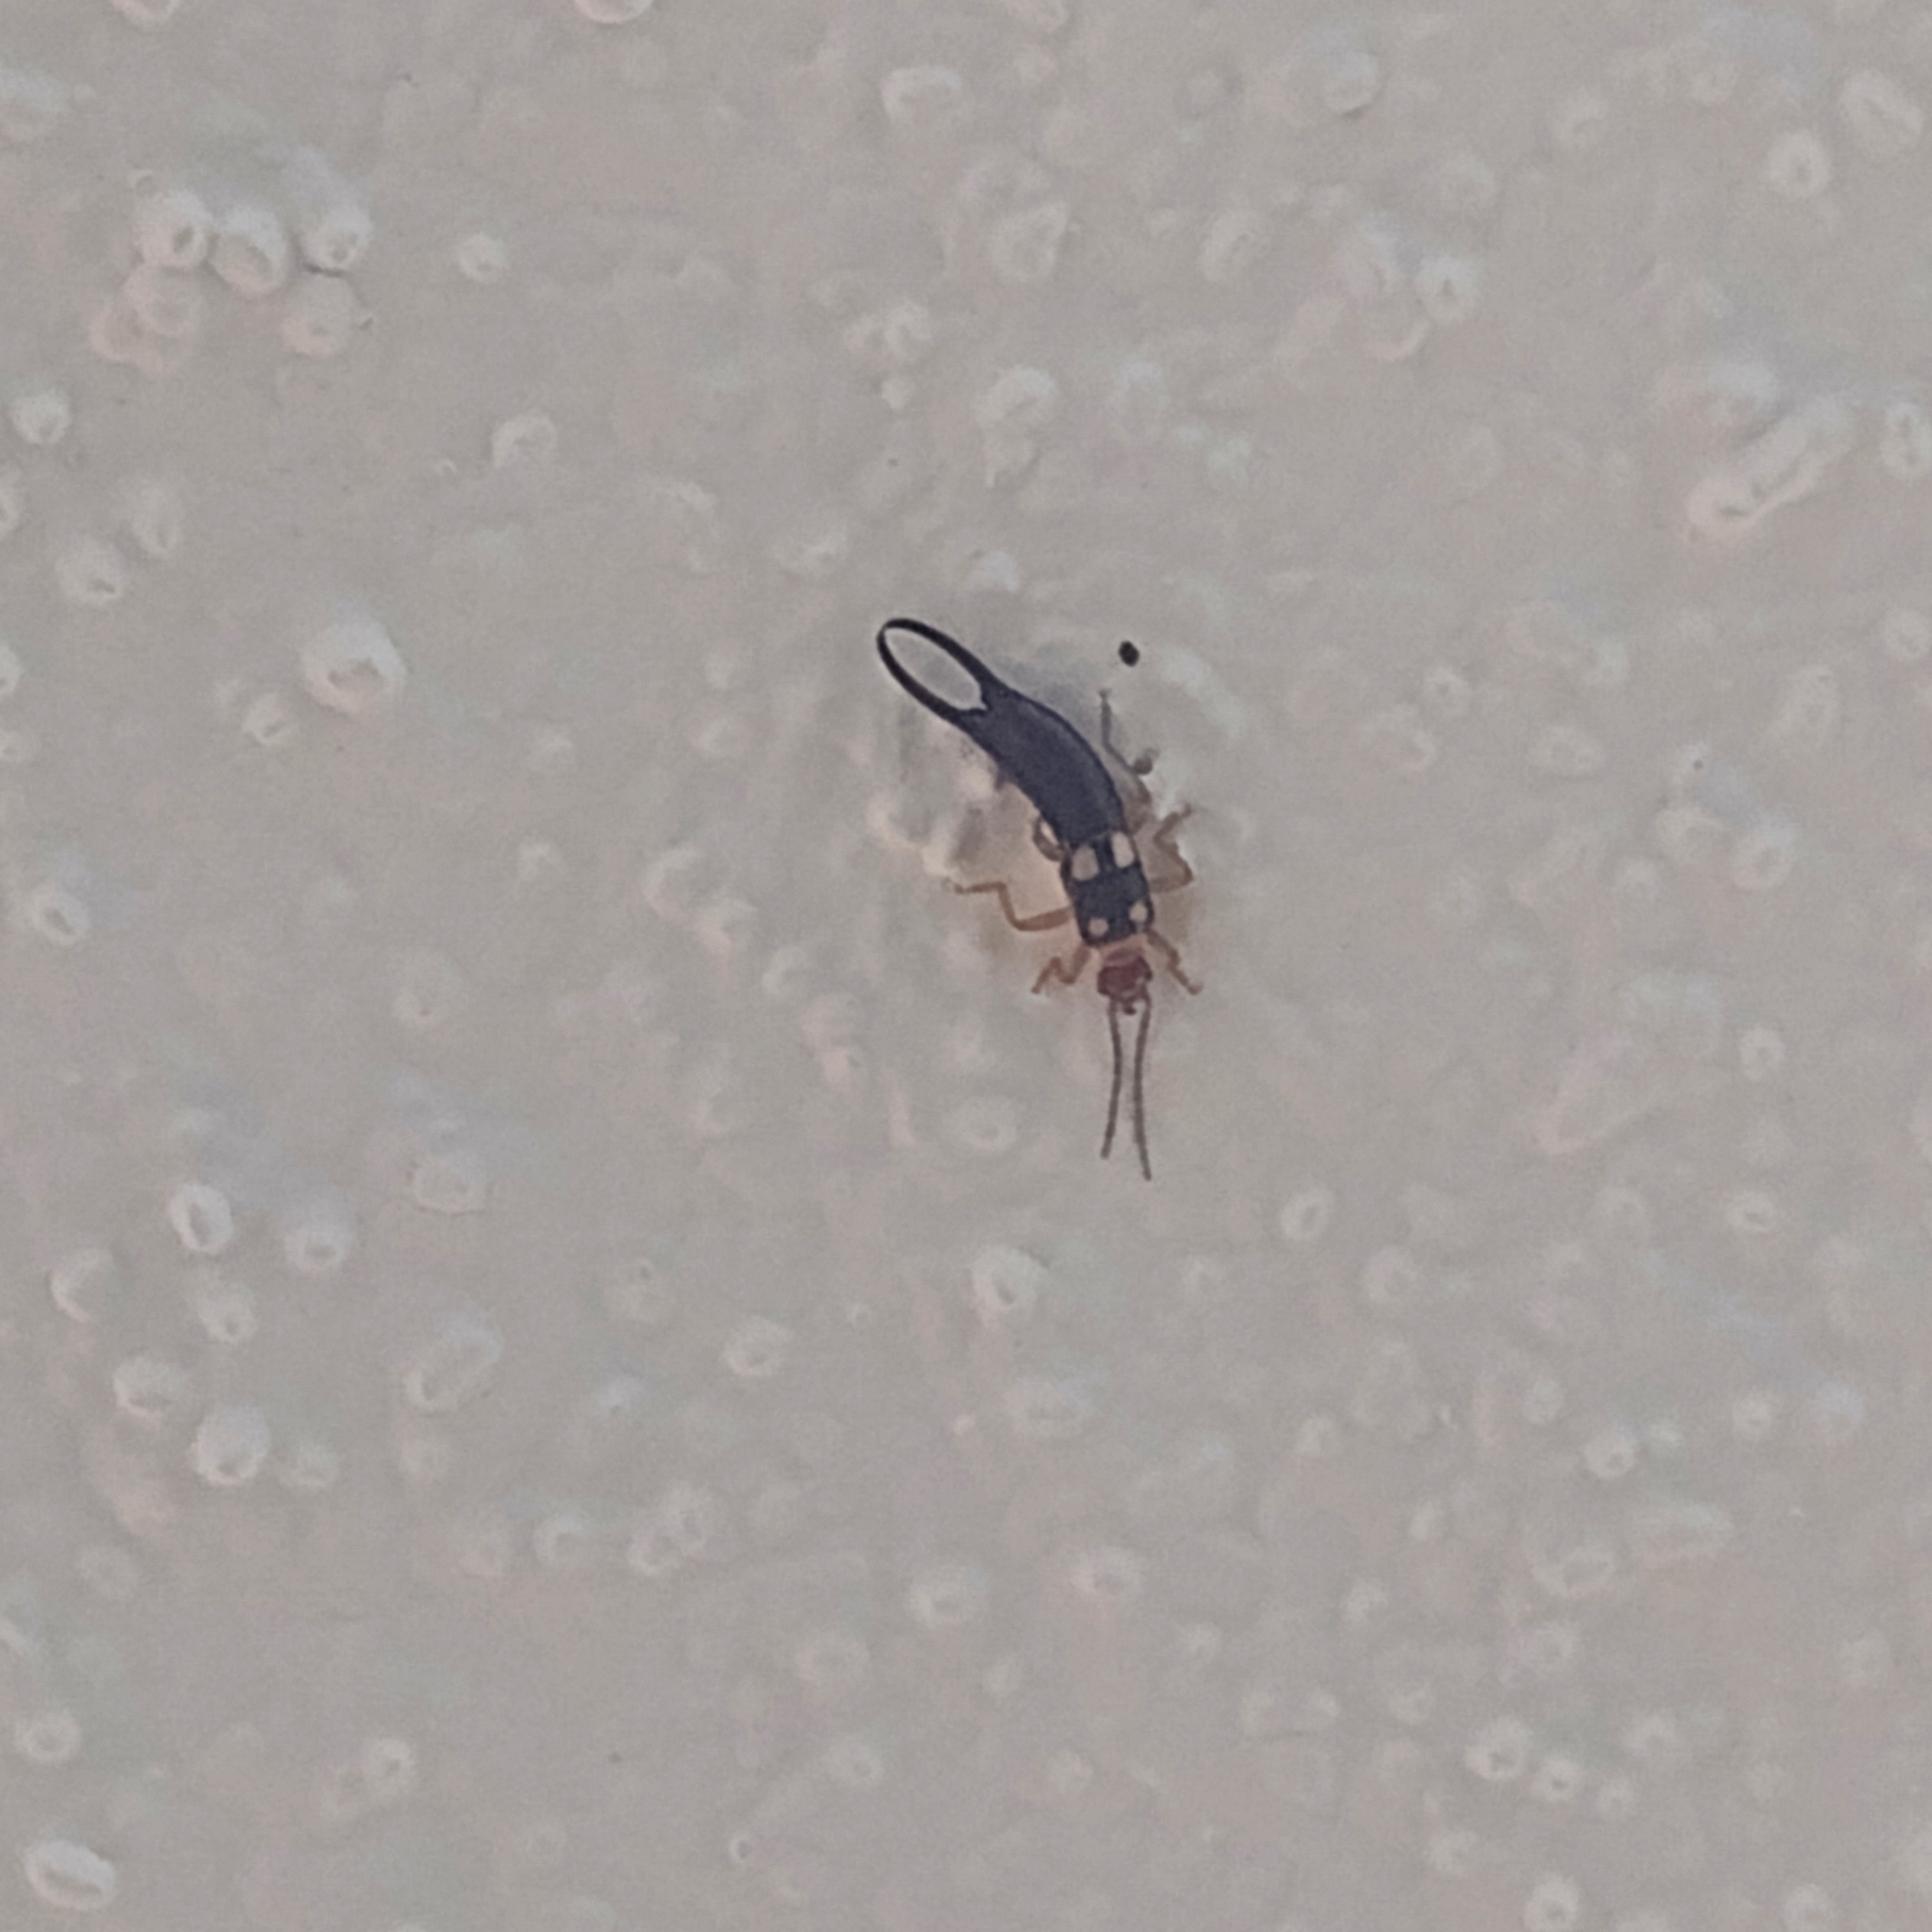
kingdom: Animalia
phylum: Arthropoda
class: Insecta
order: Dermaptera
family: Forficulidae
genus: Forficula
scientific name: Forficula smyrnensis
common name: Smyrna earwig
